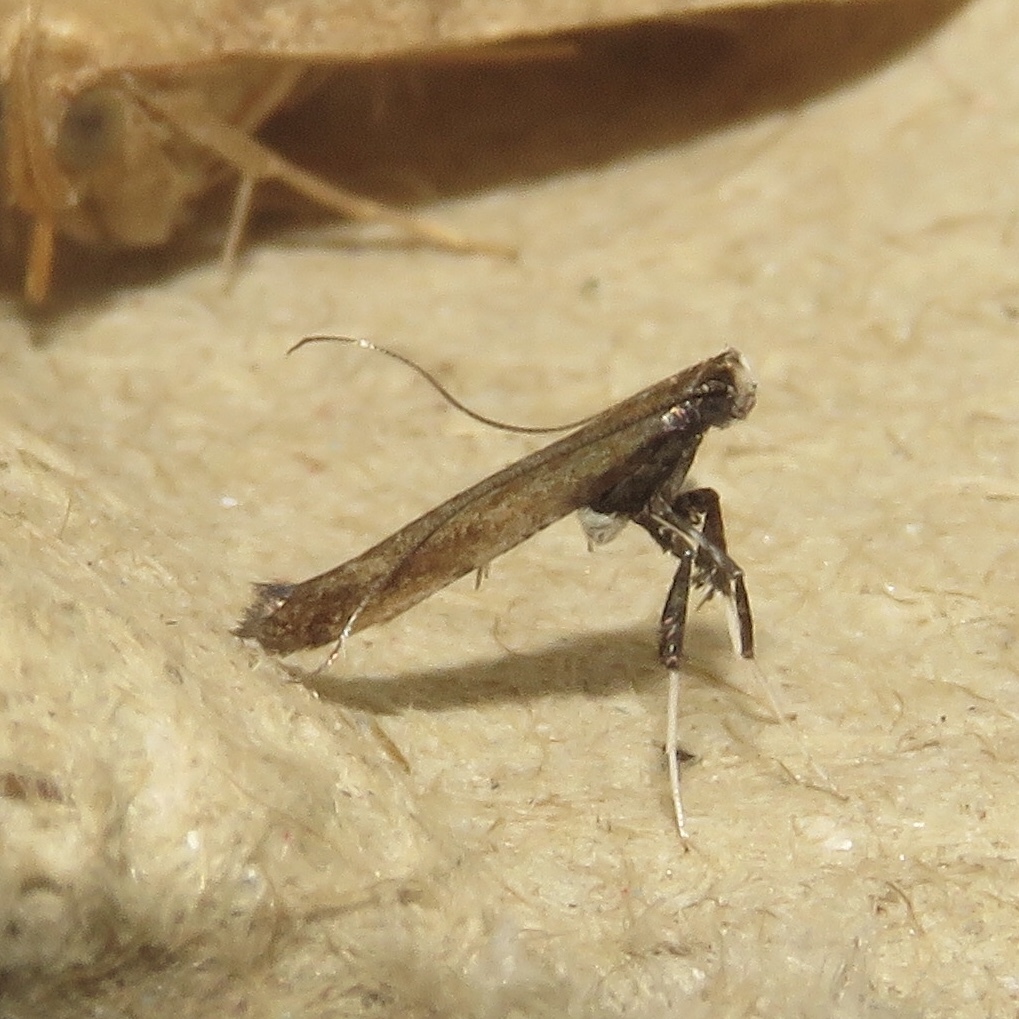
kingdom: Animalia
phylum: Arthropoda
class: Insecta
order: Lepidoptera
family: Gracillariidae
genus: Caloptilia
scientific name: Caloptilia rhoifoliella
